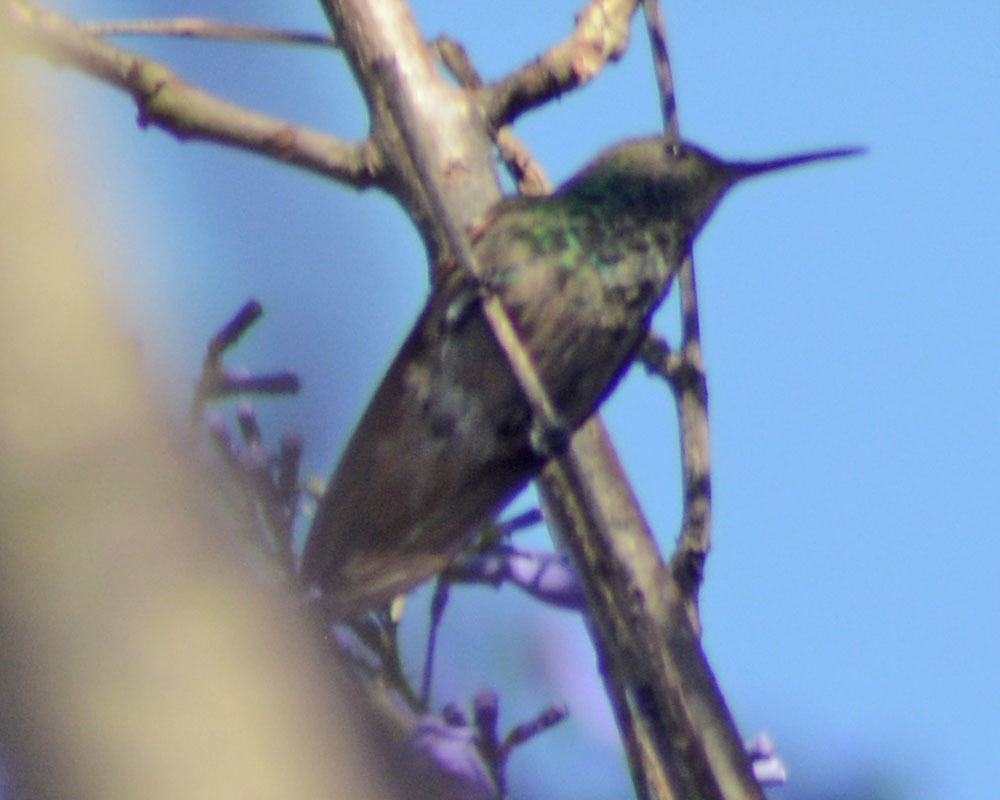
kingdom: Animalia
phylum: Chordata
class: Aves
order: Apodiformes
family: Trochilidae
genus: Saucerottia
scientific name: Saucerottia beryllina
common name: Berylline hummingbird
